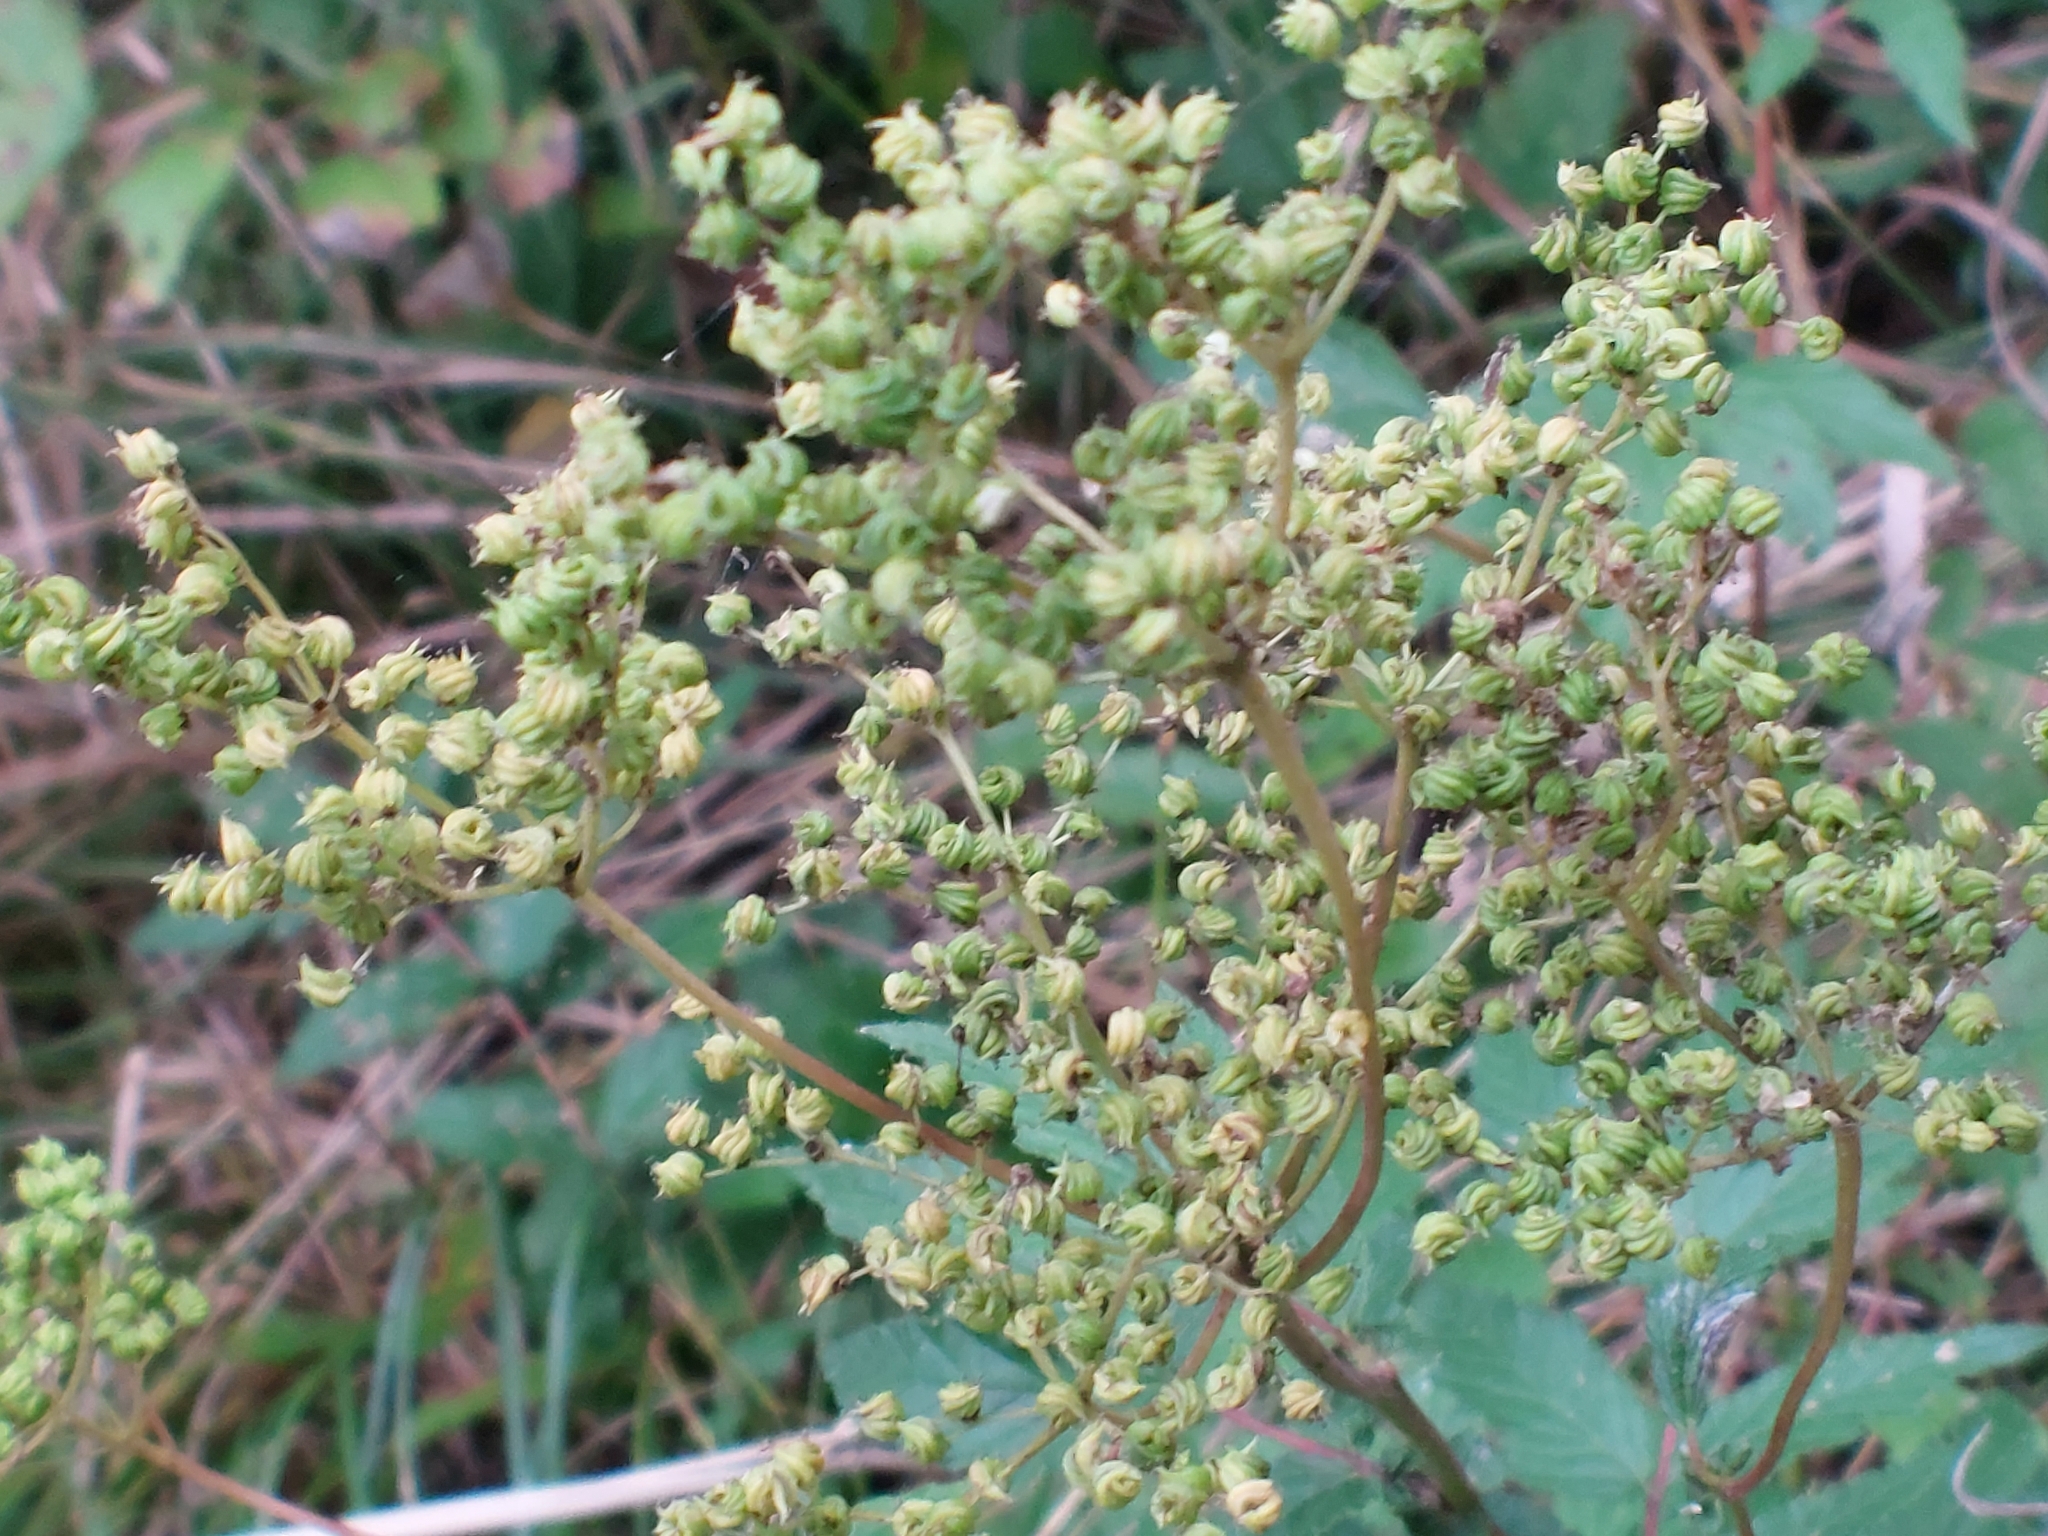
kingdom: Plantae
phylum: Tracheophyta
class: Magnoliopsida
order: Rosales
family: Rosaceae
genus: Filipendula
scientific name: Filipendula ulmaria
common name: Meadowsweet
